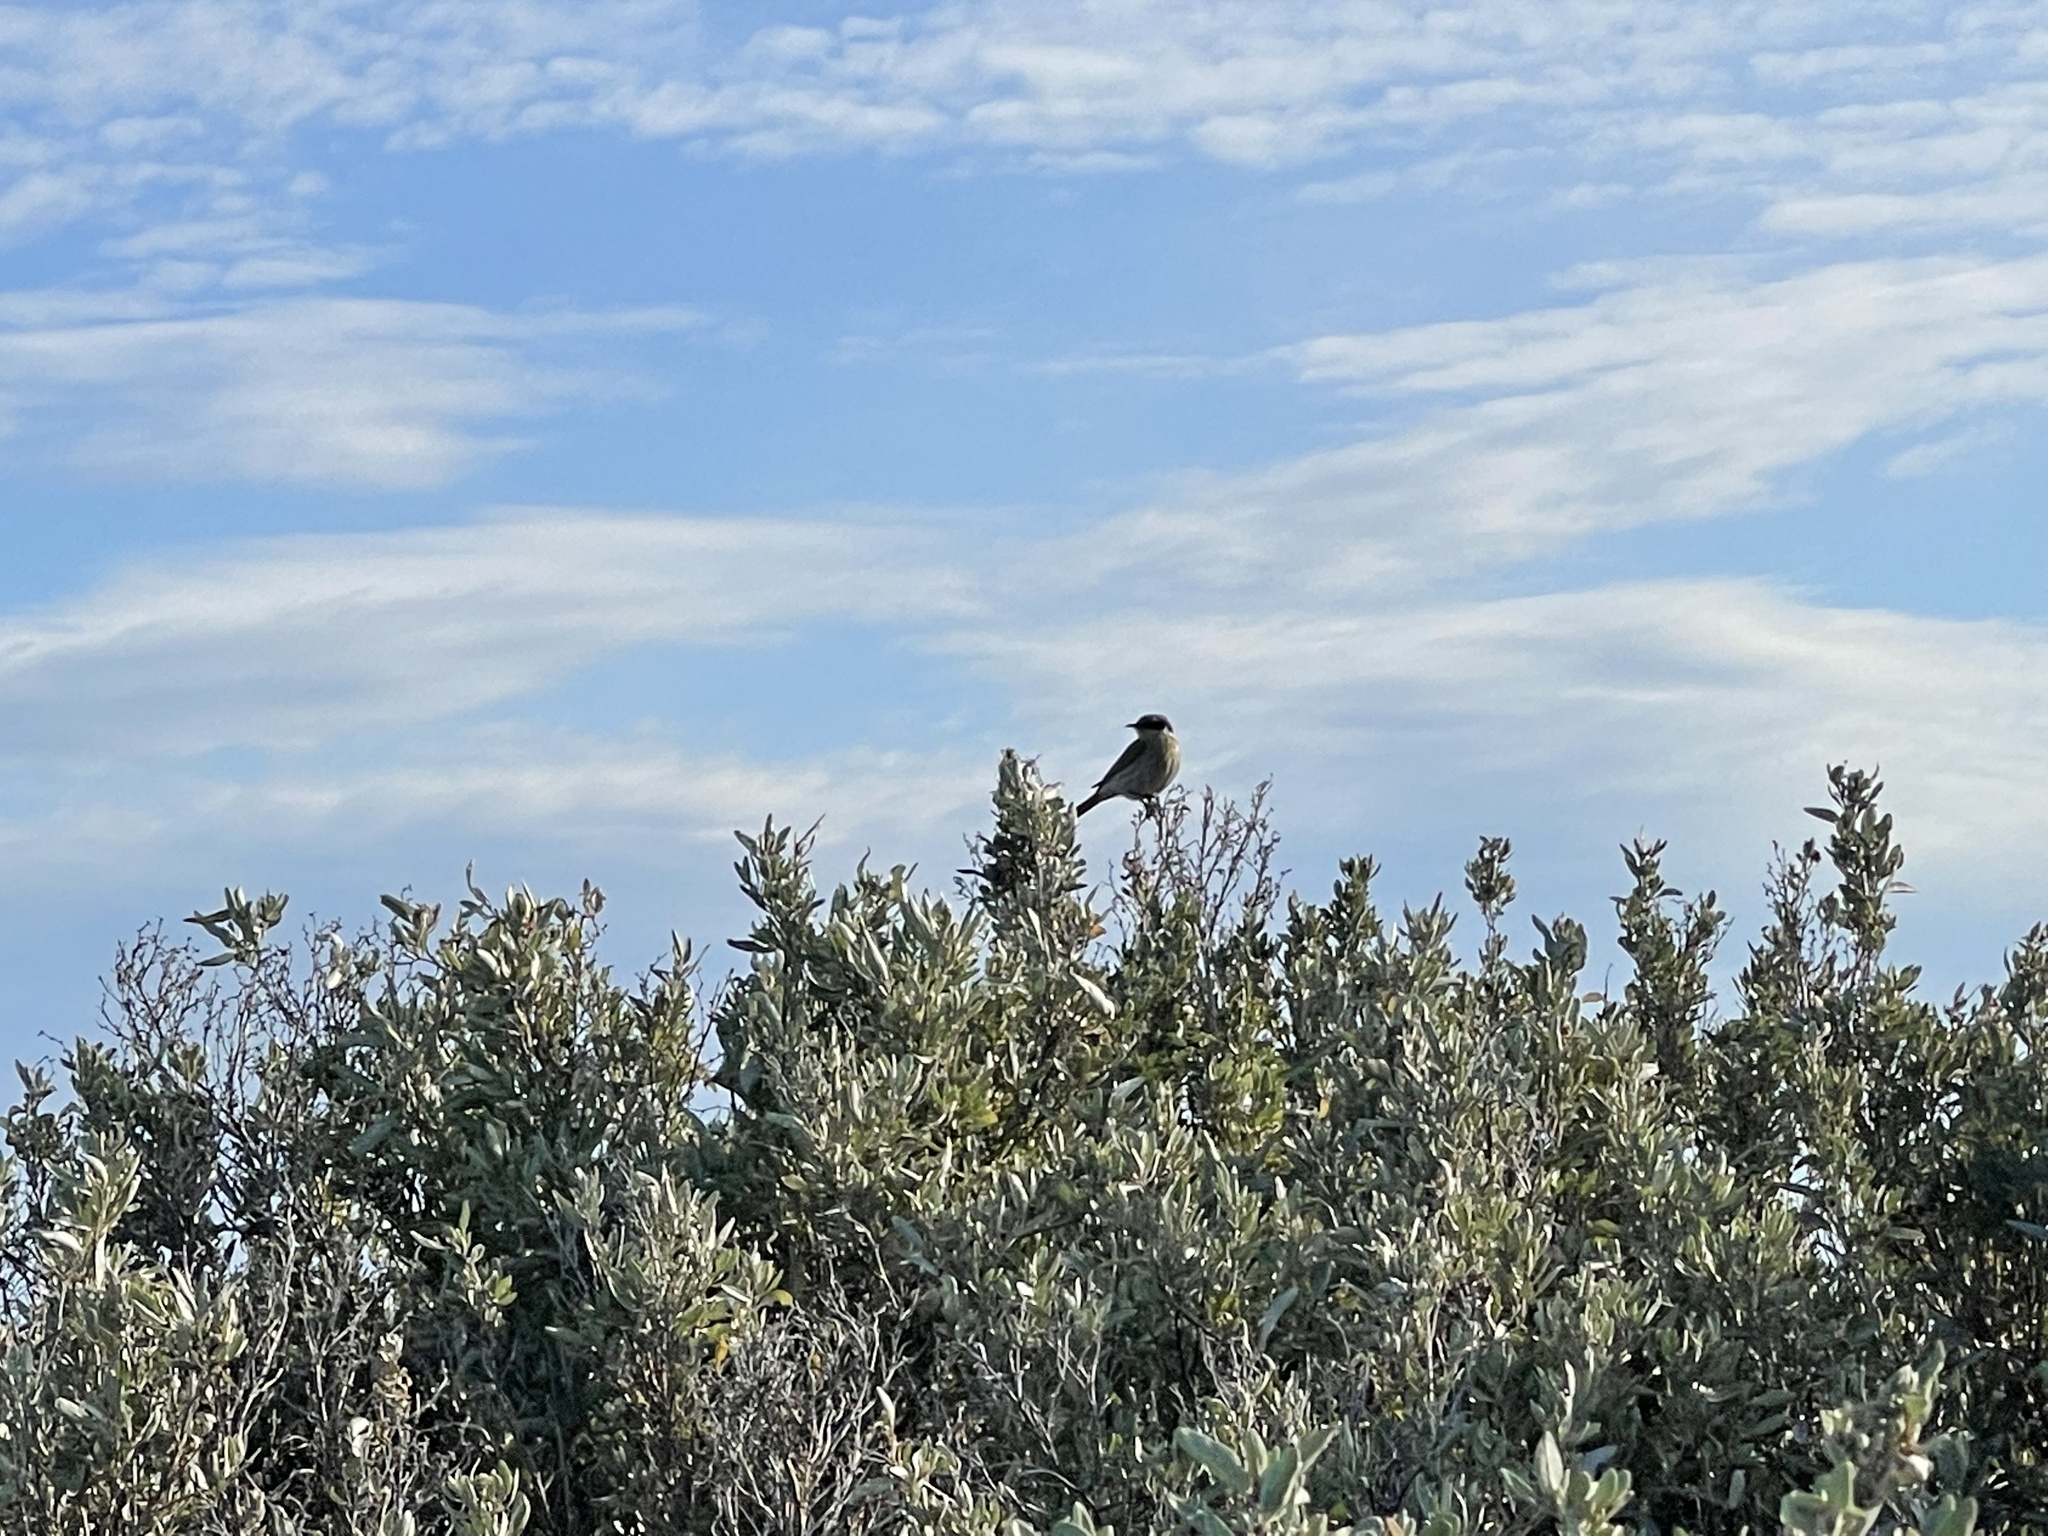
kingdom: Animalia
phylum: Chordata
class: Aves
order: Passeriformes
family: Meliphagidae
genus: Gavicalis
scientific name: Gavicalis virescens
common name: Singing honeyeater
